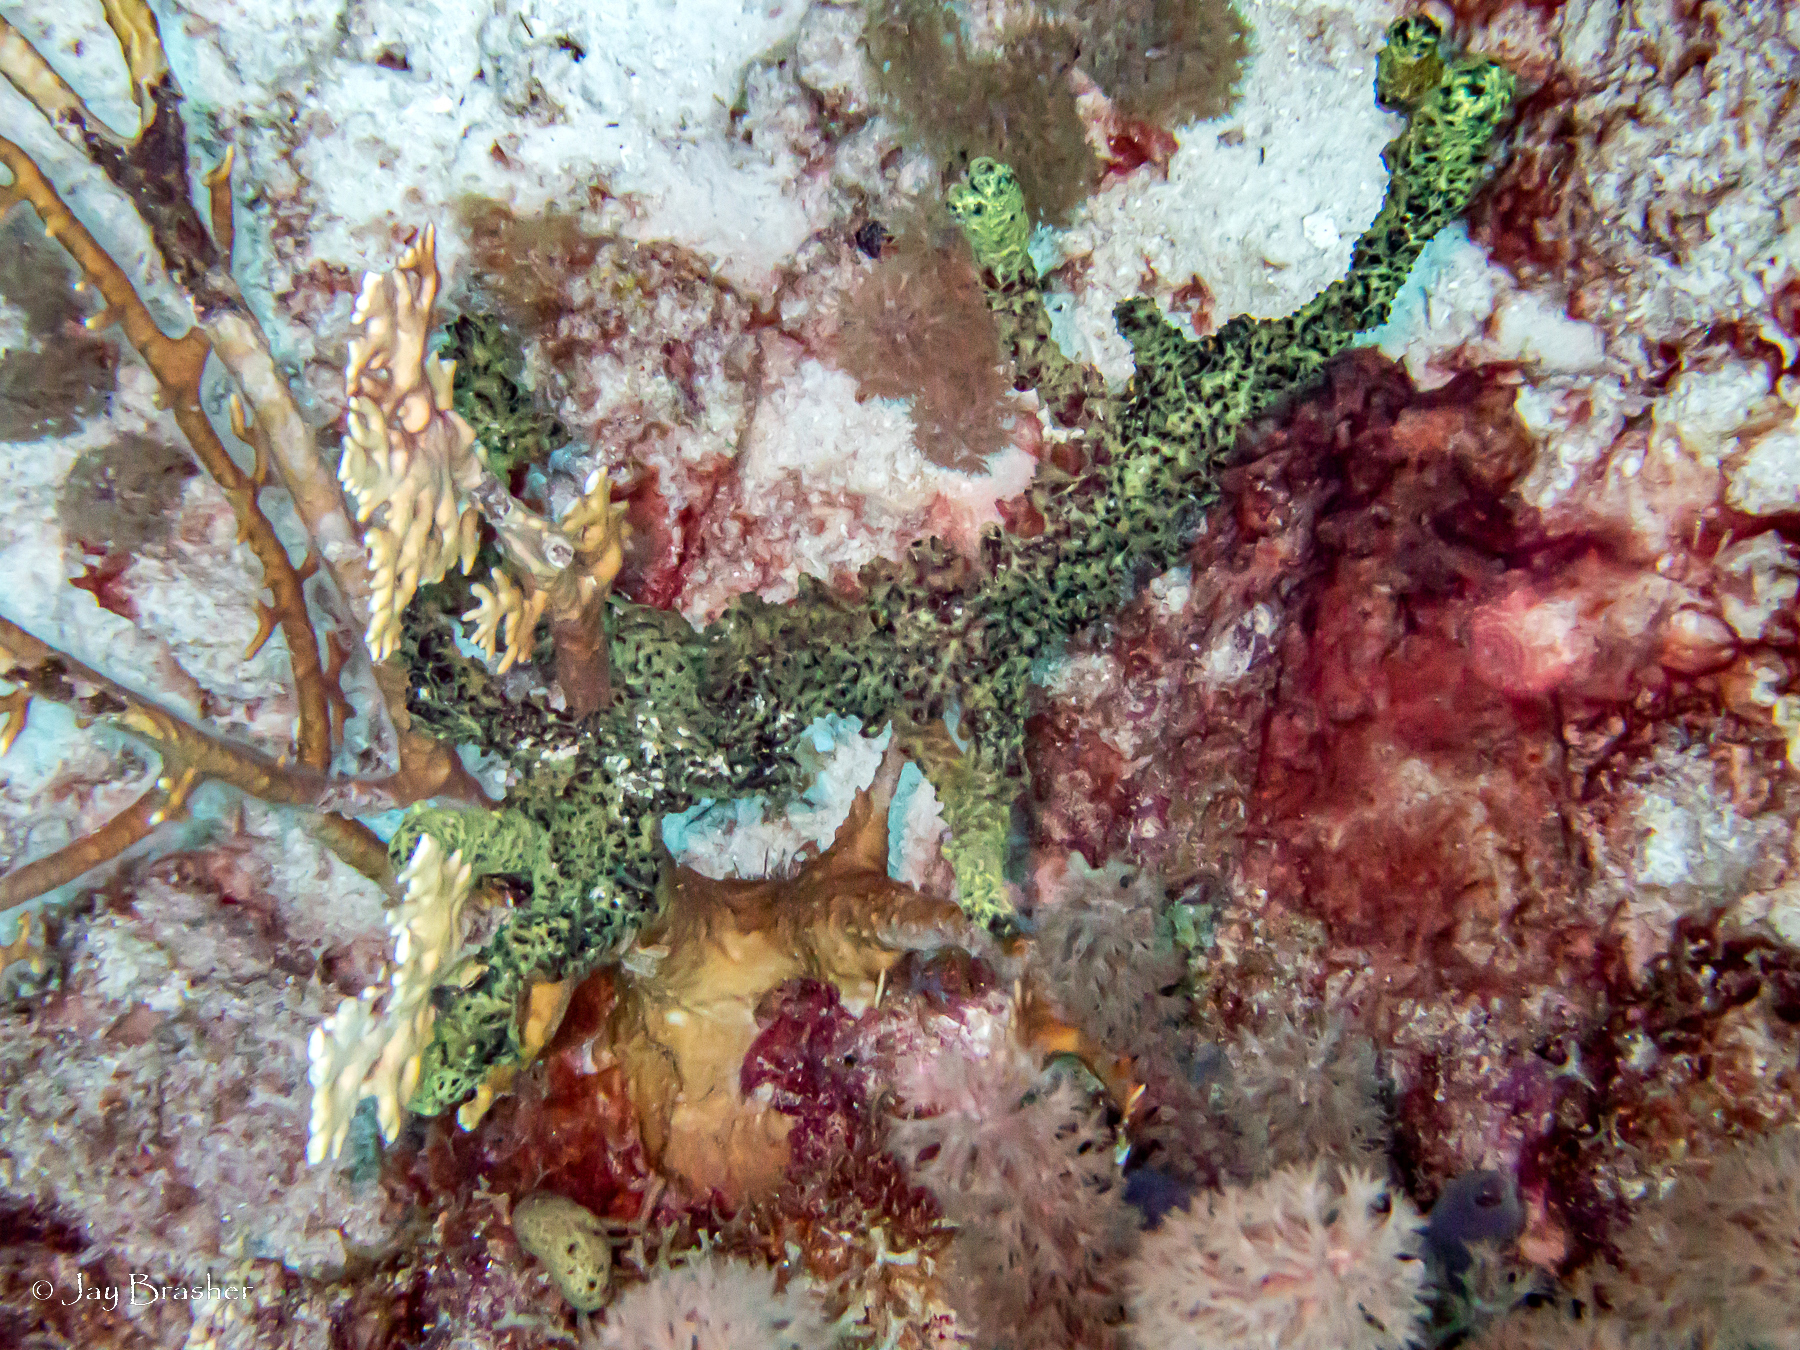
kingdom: Animalia
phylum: Porifera
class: Demospongiae
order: Poecilosclerida
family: Iotrochotidae
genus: Iotrochota
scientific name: Iotrochota birotulata
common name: Purple bleeding sponge
